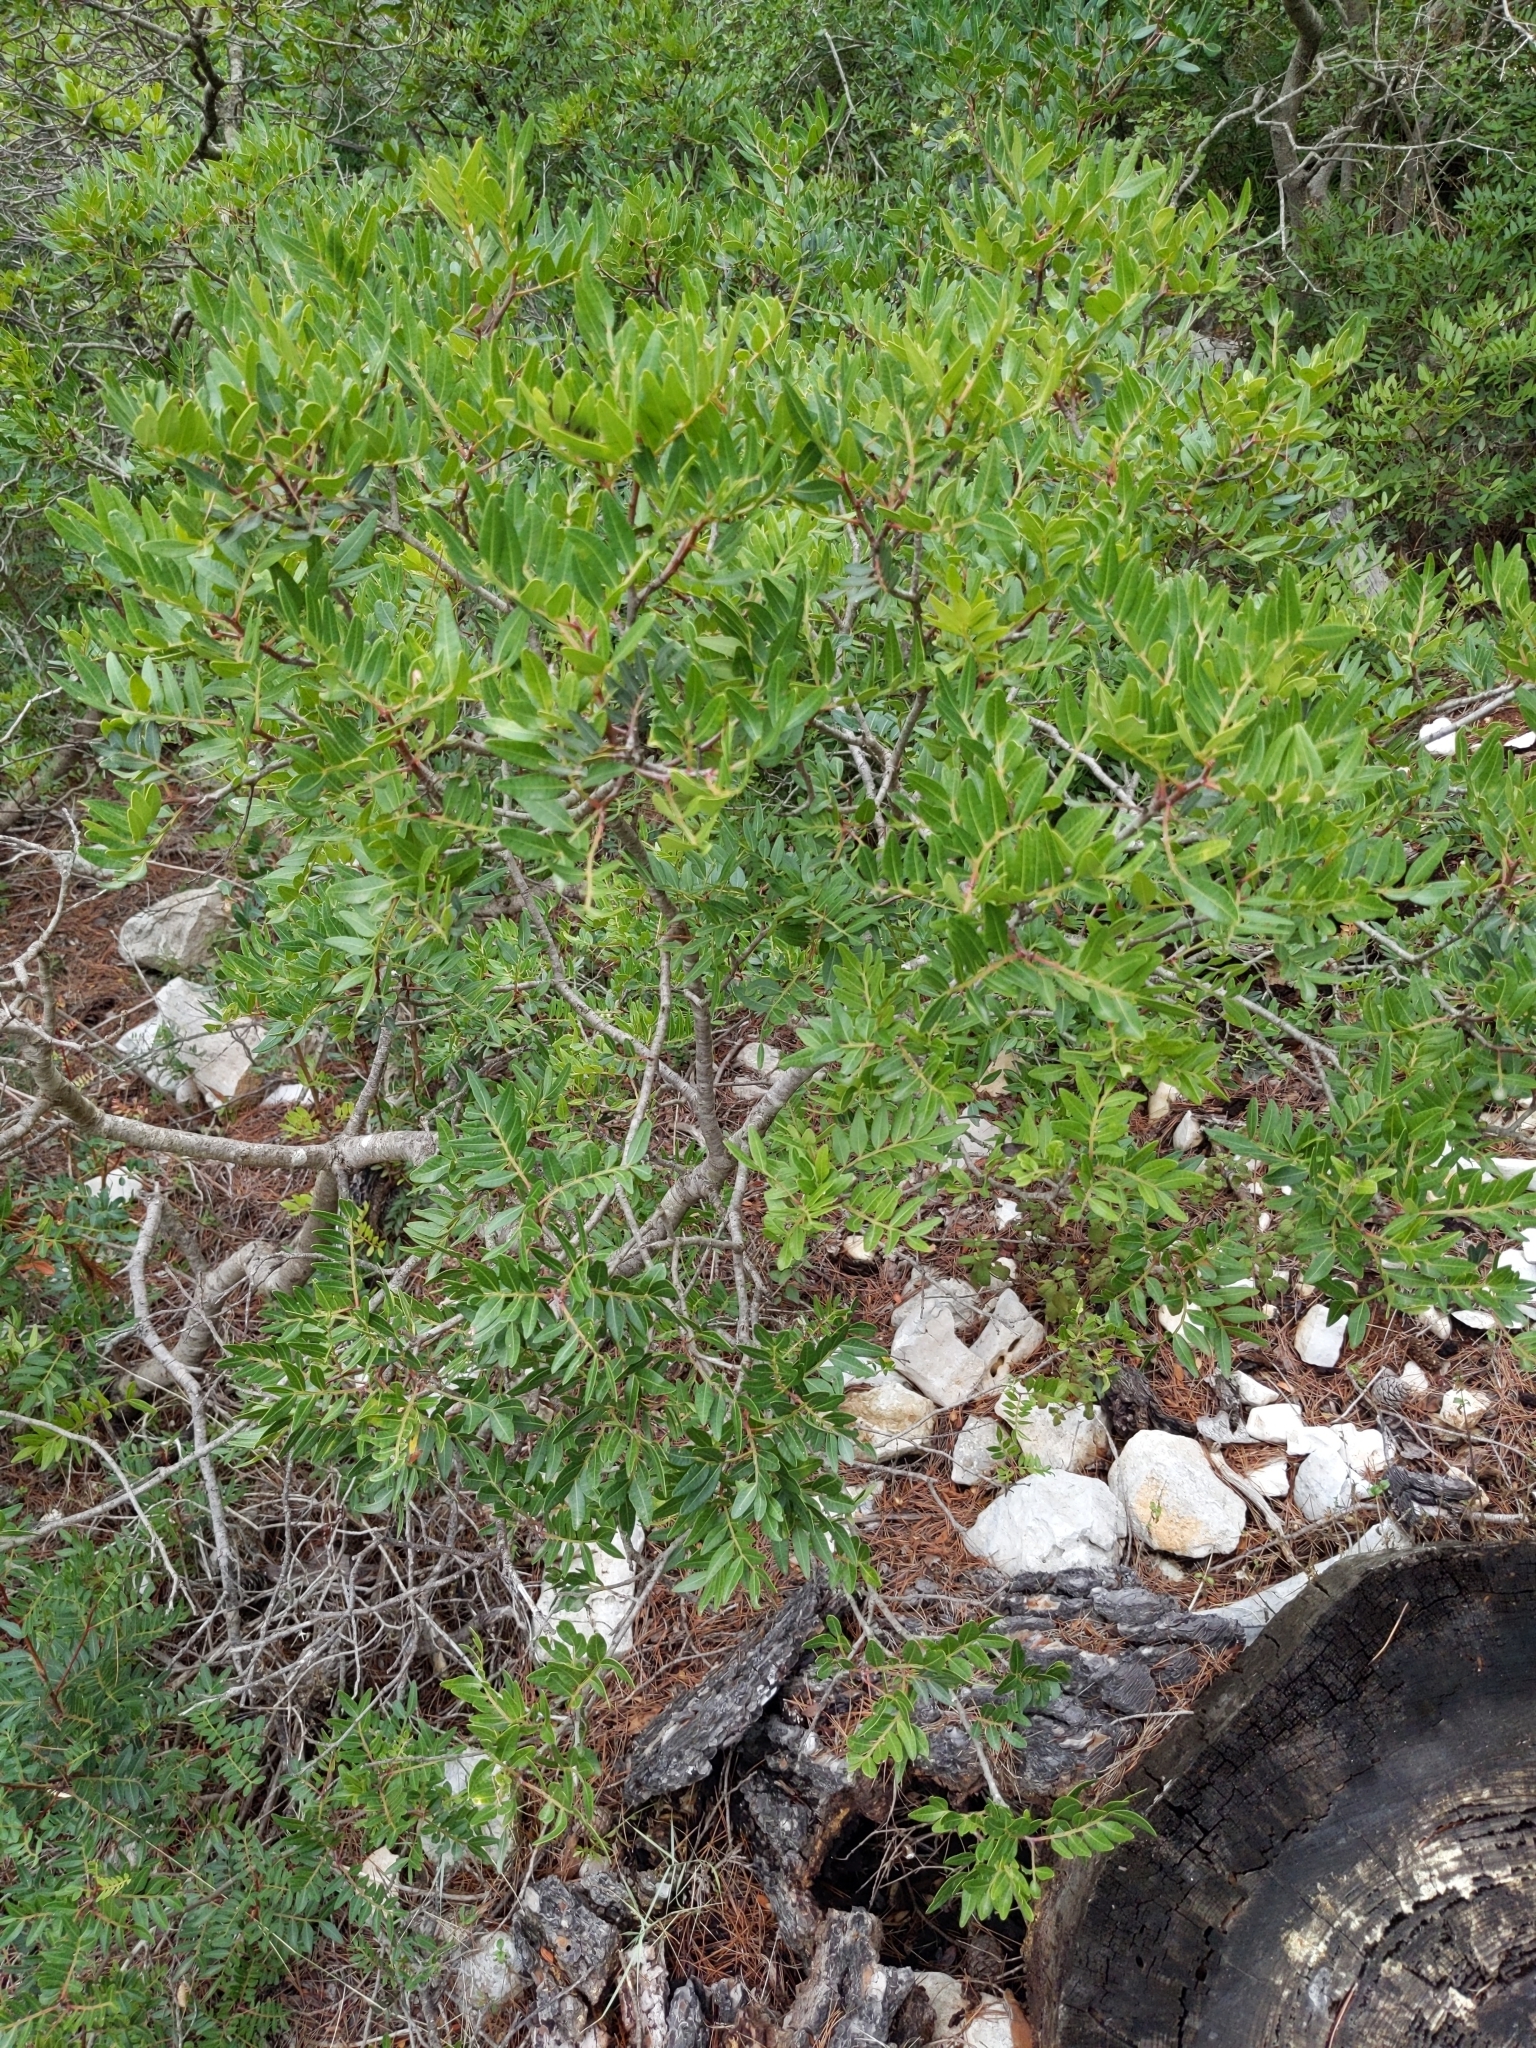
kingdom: Plantae
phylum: Tracheophyta
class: Magnoliopsida
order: Sapindales
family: Anacardiaceae
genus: Pistacia
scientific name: Pistacia lentiscus
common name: Lentisk
